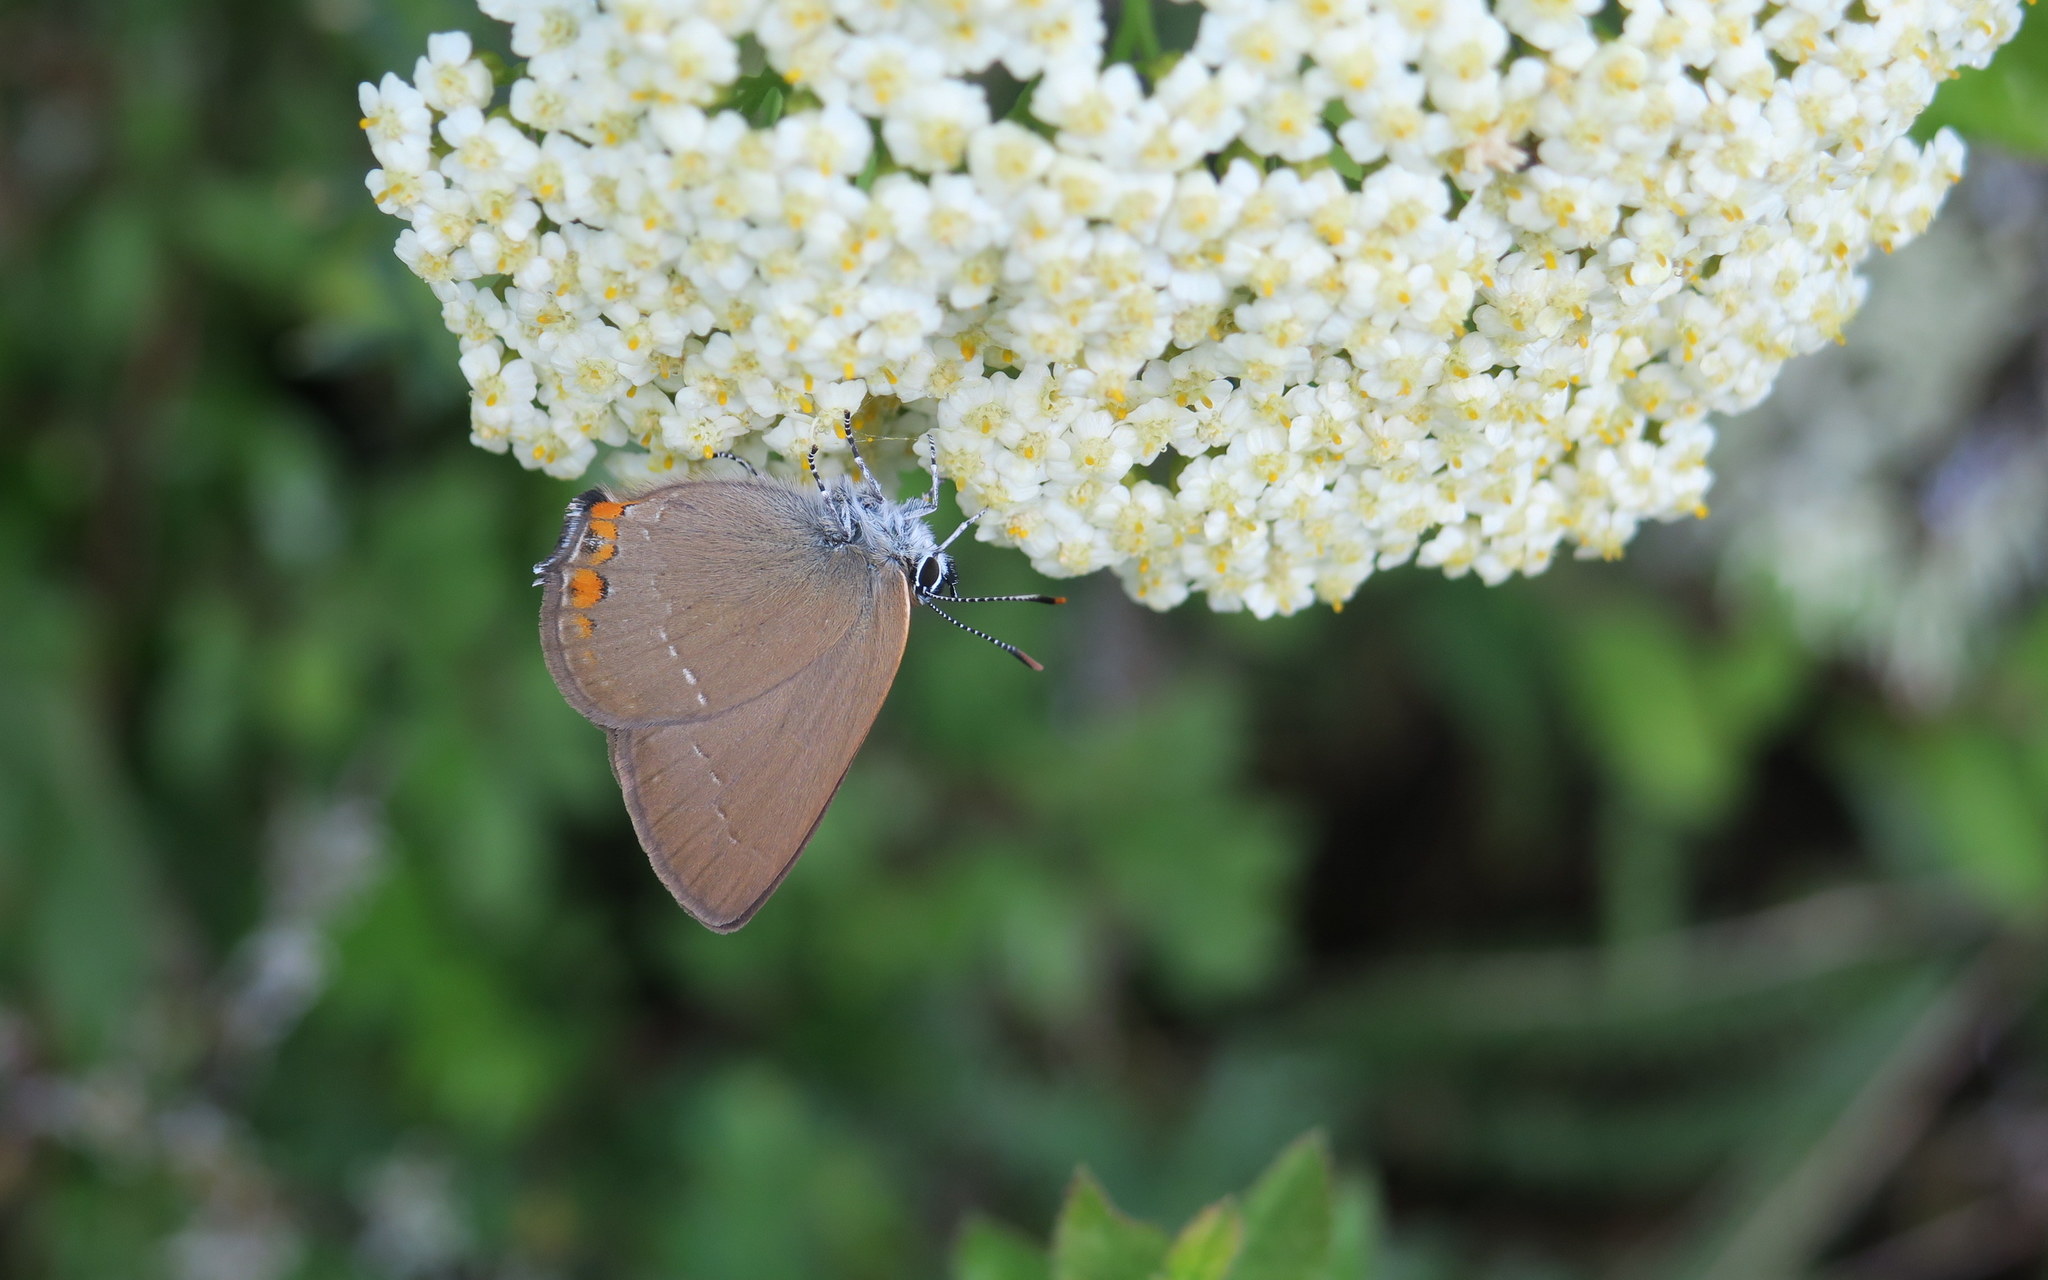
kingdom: Animalia
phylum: Arthropoda
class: Insecta
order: Lepidoptera
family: Lycaenidae
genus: Strymon
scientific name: Strymon acaciae
